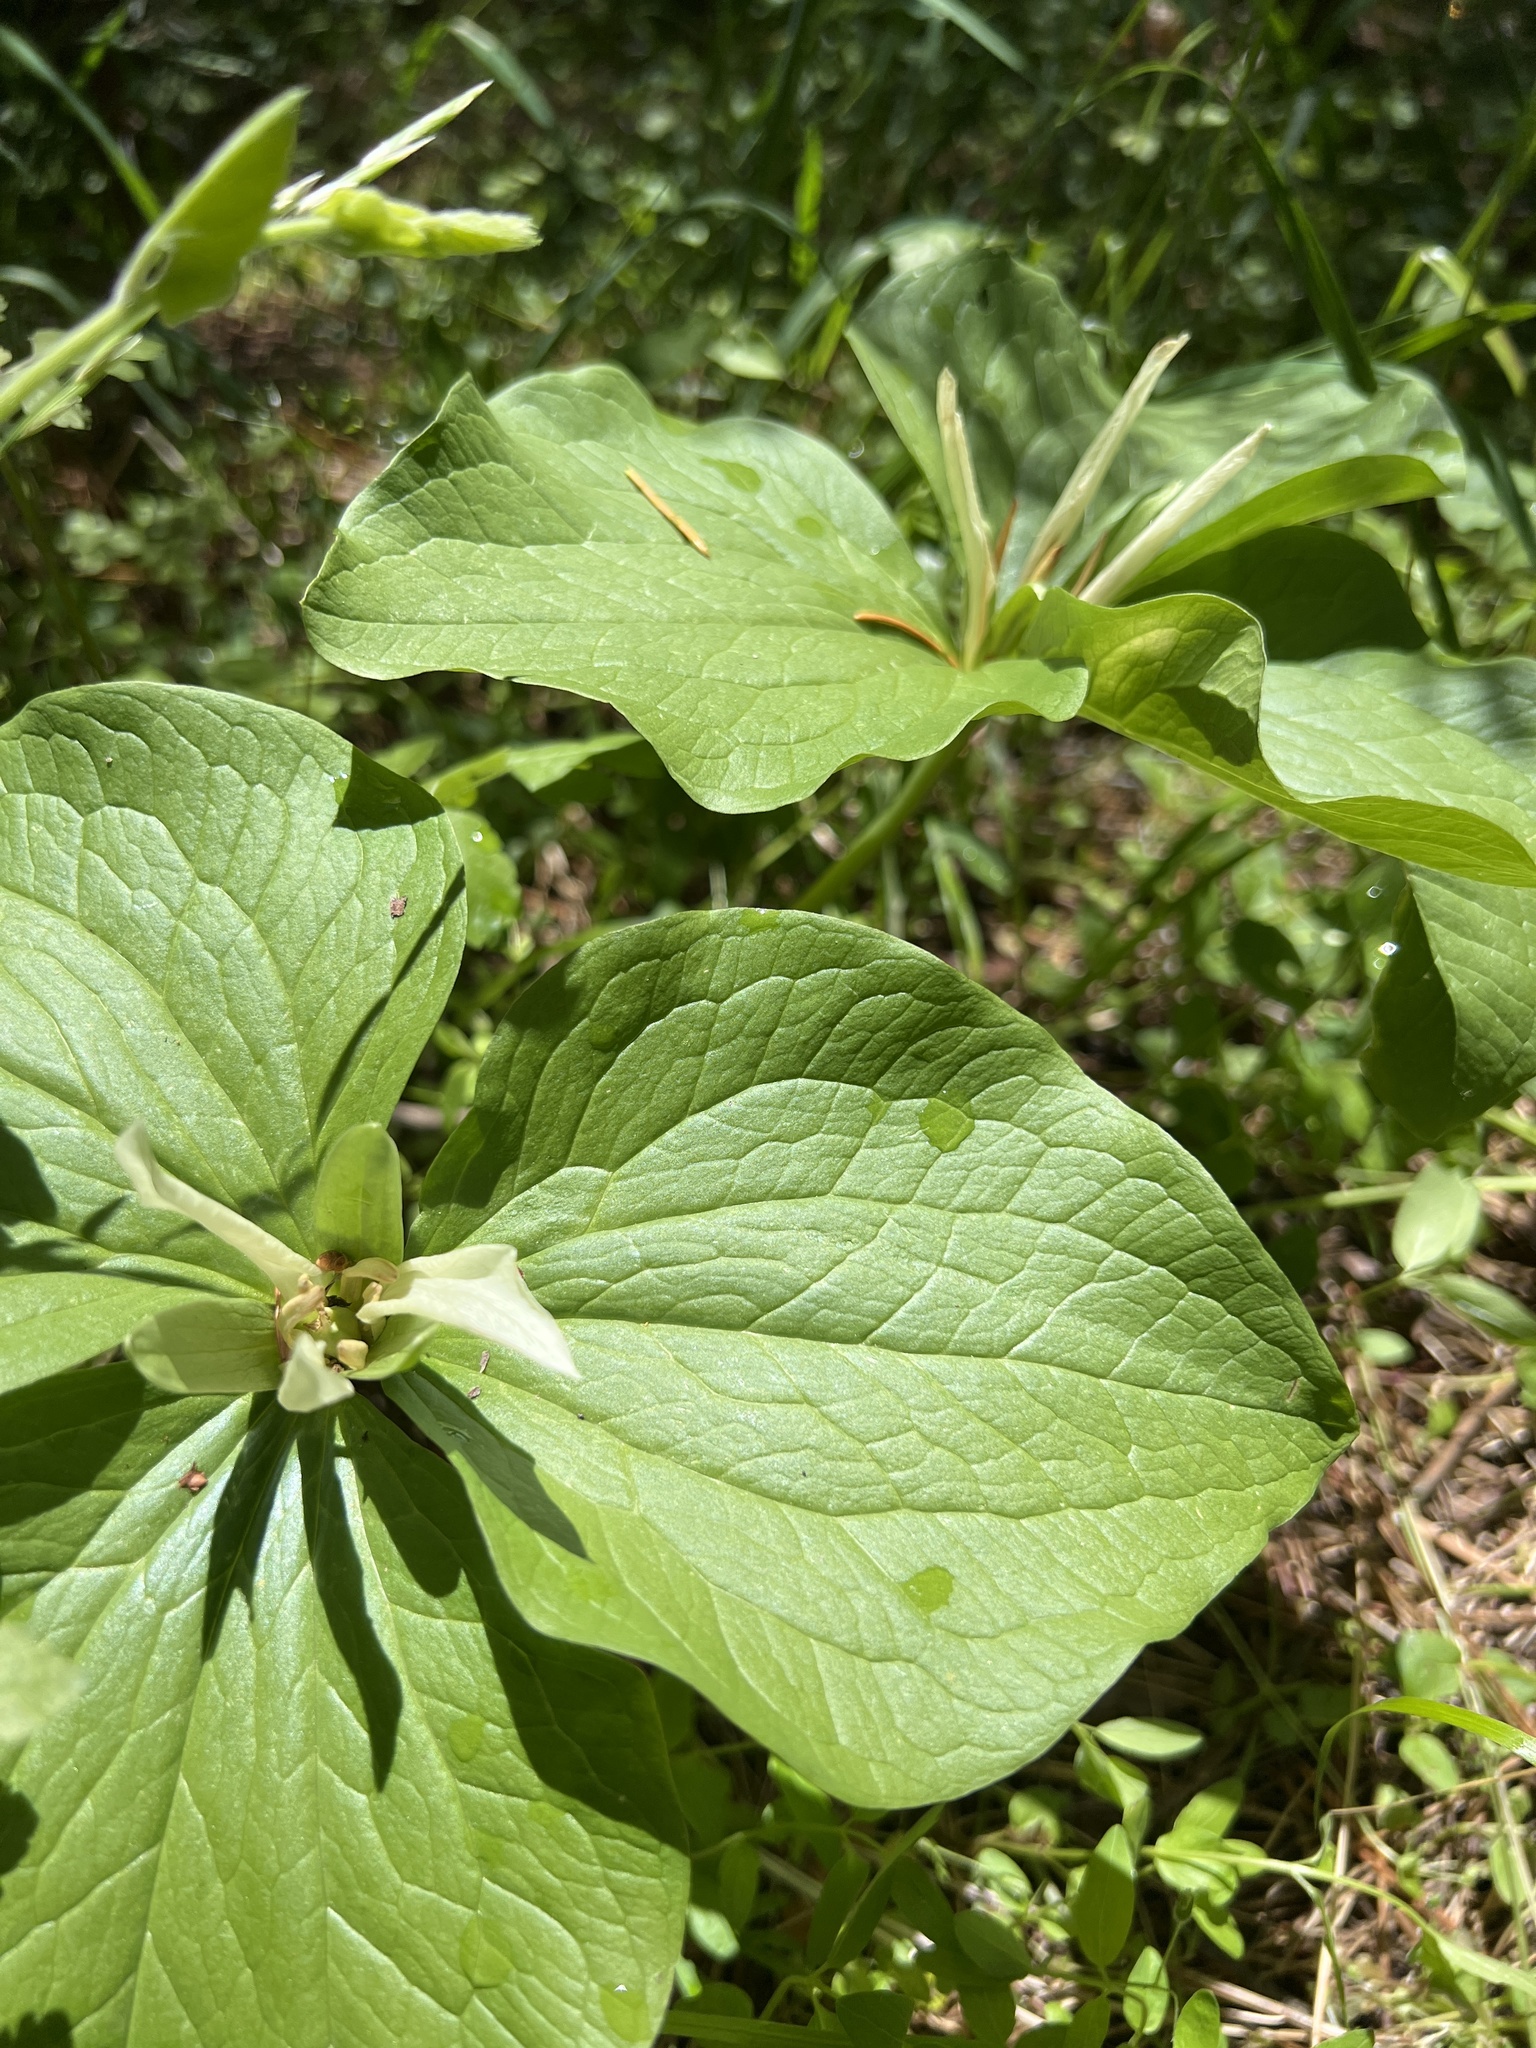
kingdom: Plantae
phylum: Tracheophyta
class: Liliopsida
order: Liliales
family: Melanthiaceae
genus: Trillium
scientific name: Trillium albidum
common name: Freeman's trillium
